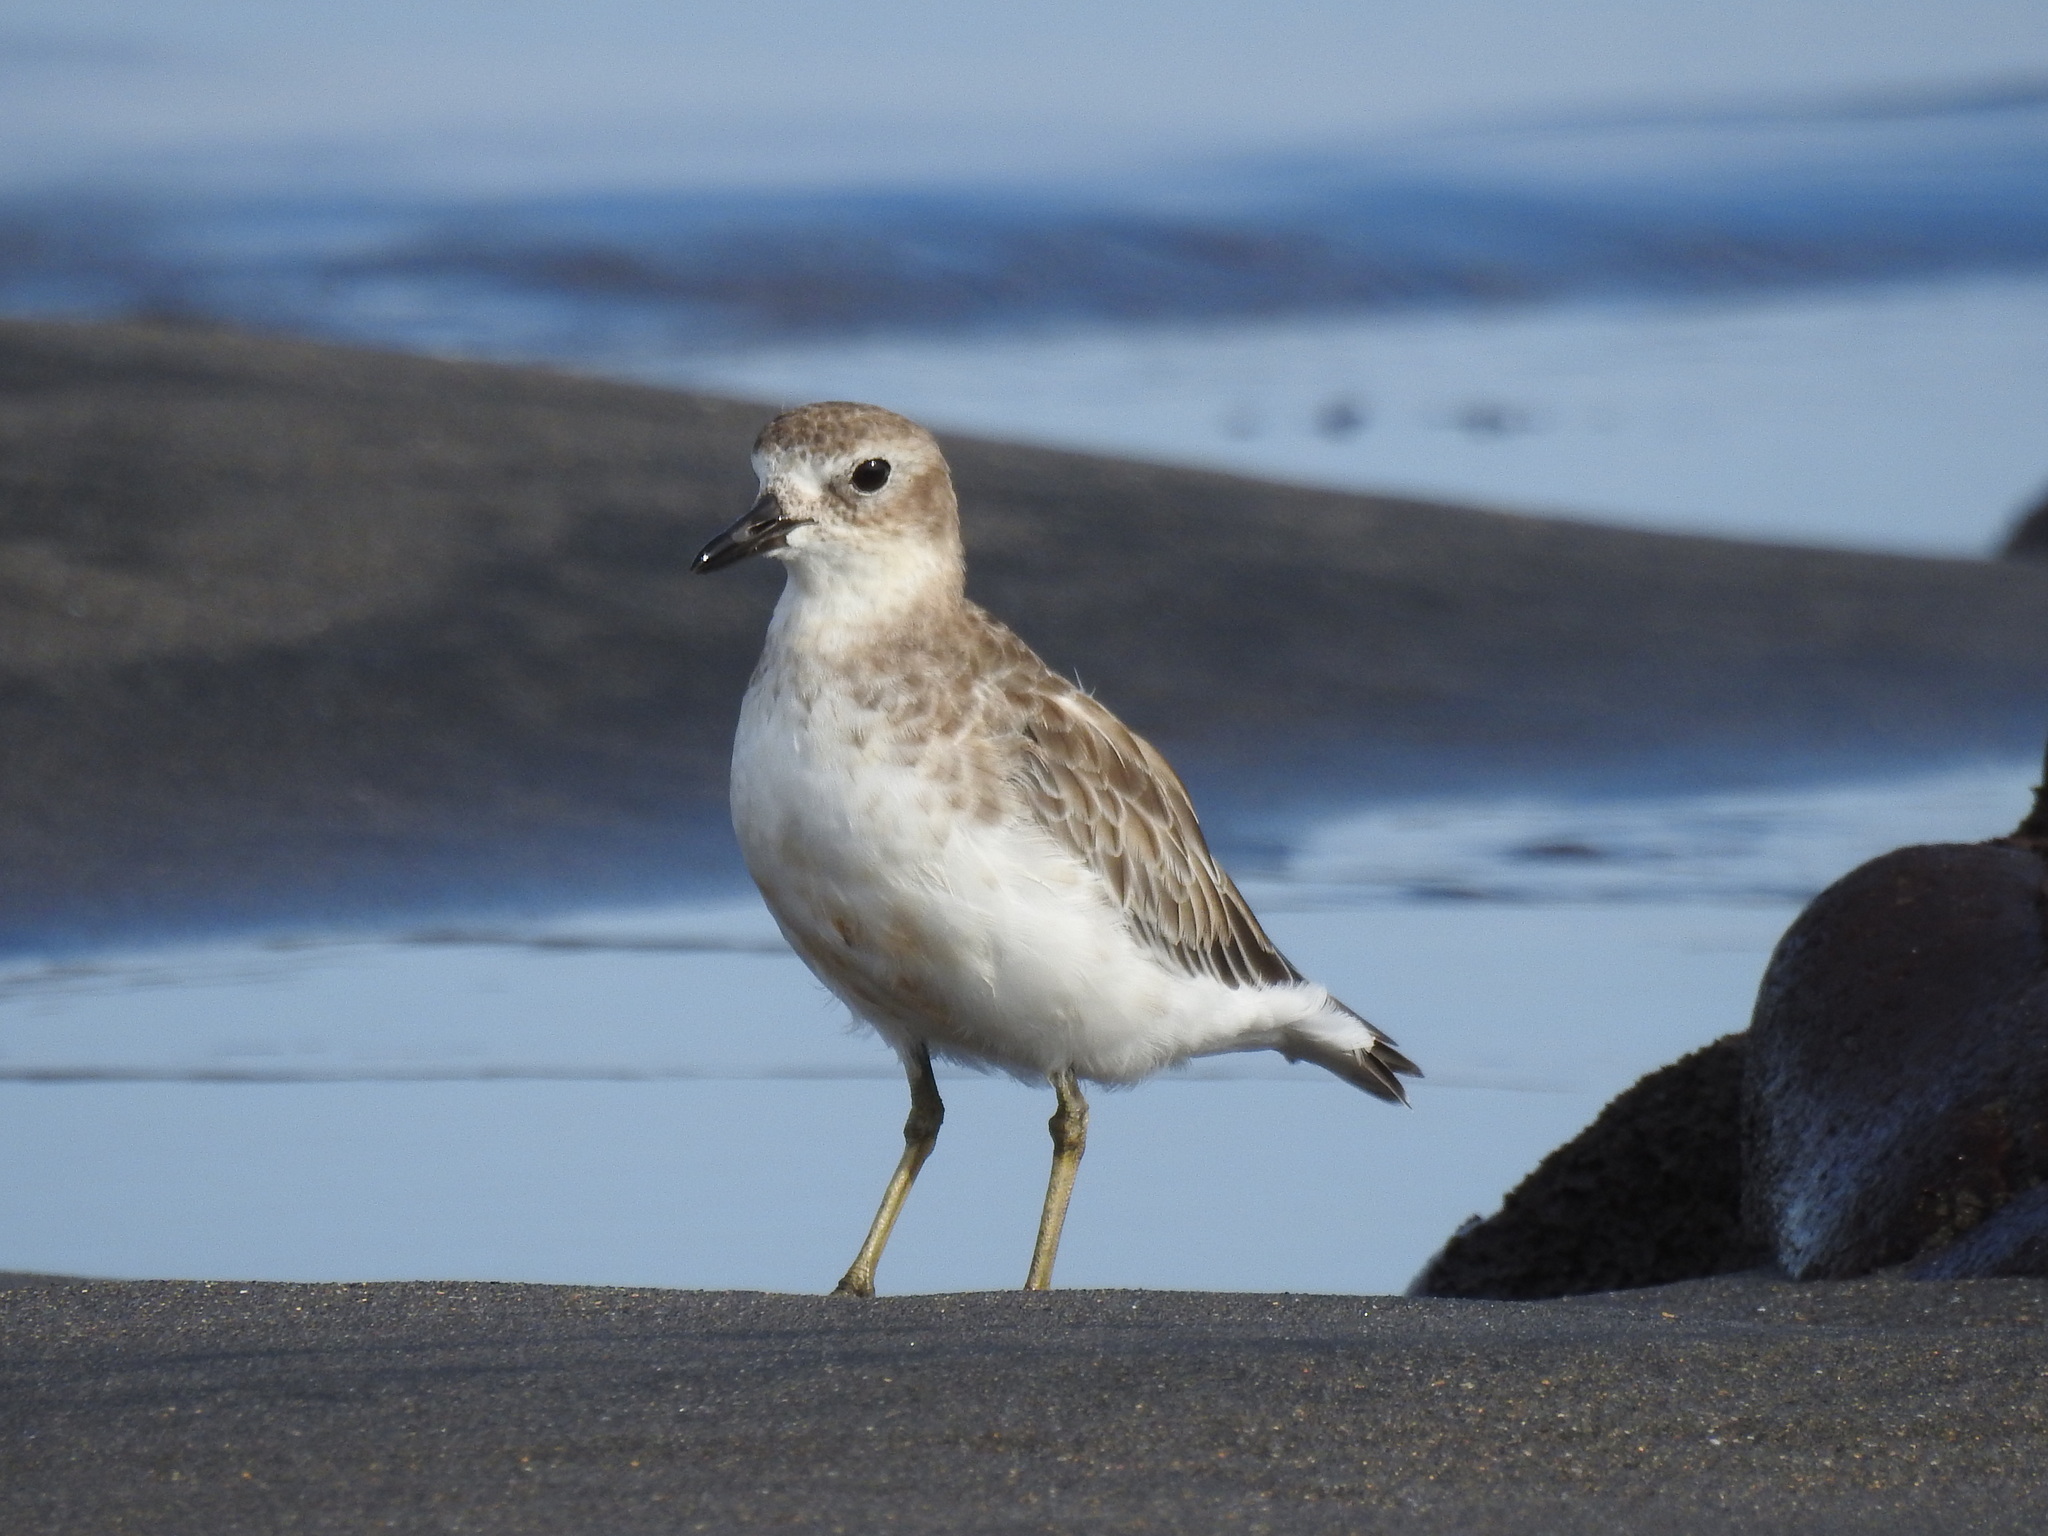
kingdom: Animalia
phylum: Chordata
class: Aves
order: Charadriiformes
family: Charadriidae
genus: Anarhynchus
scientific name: Anarhynchus
